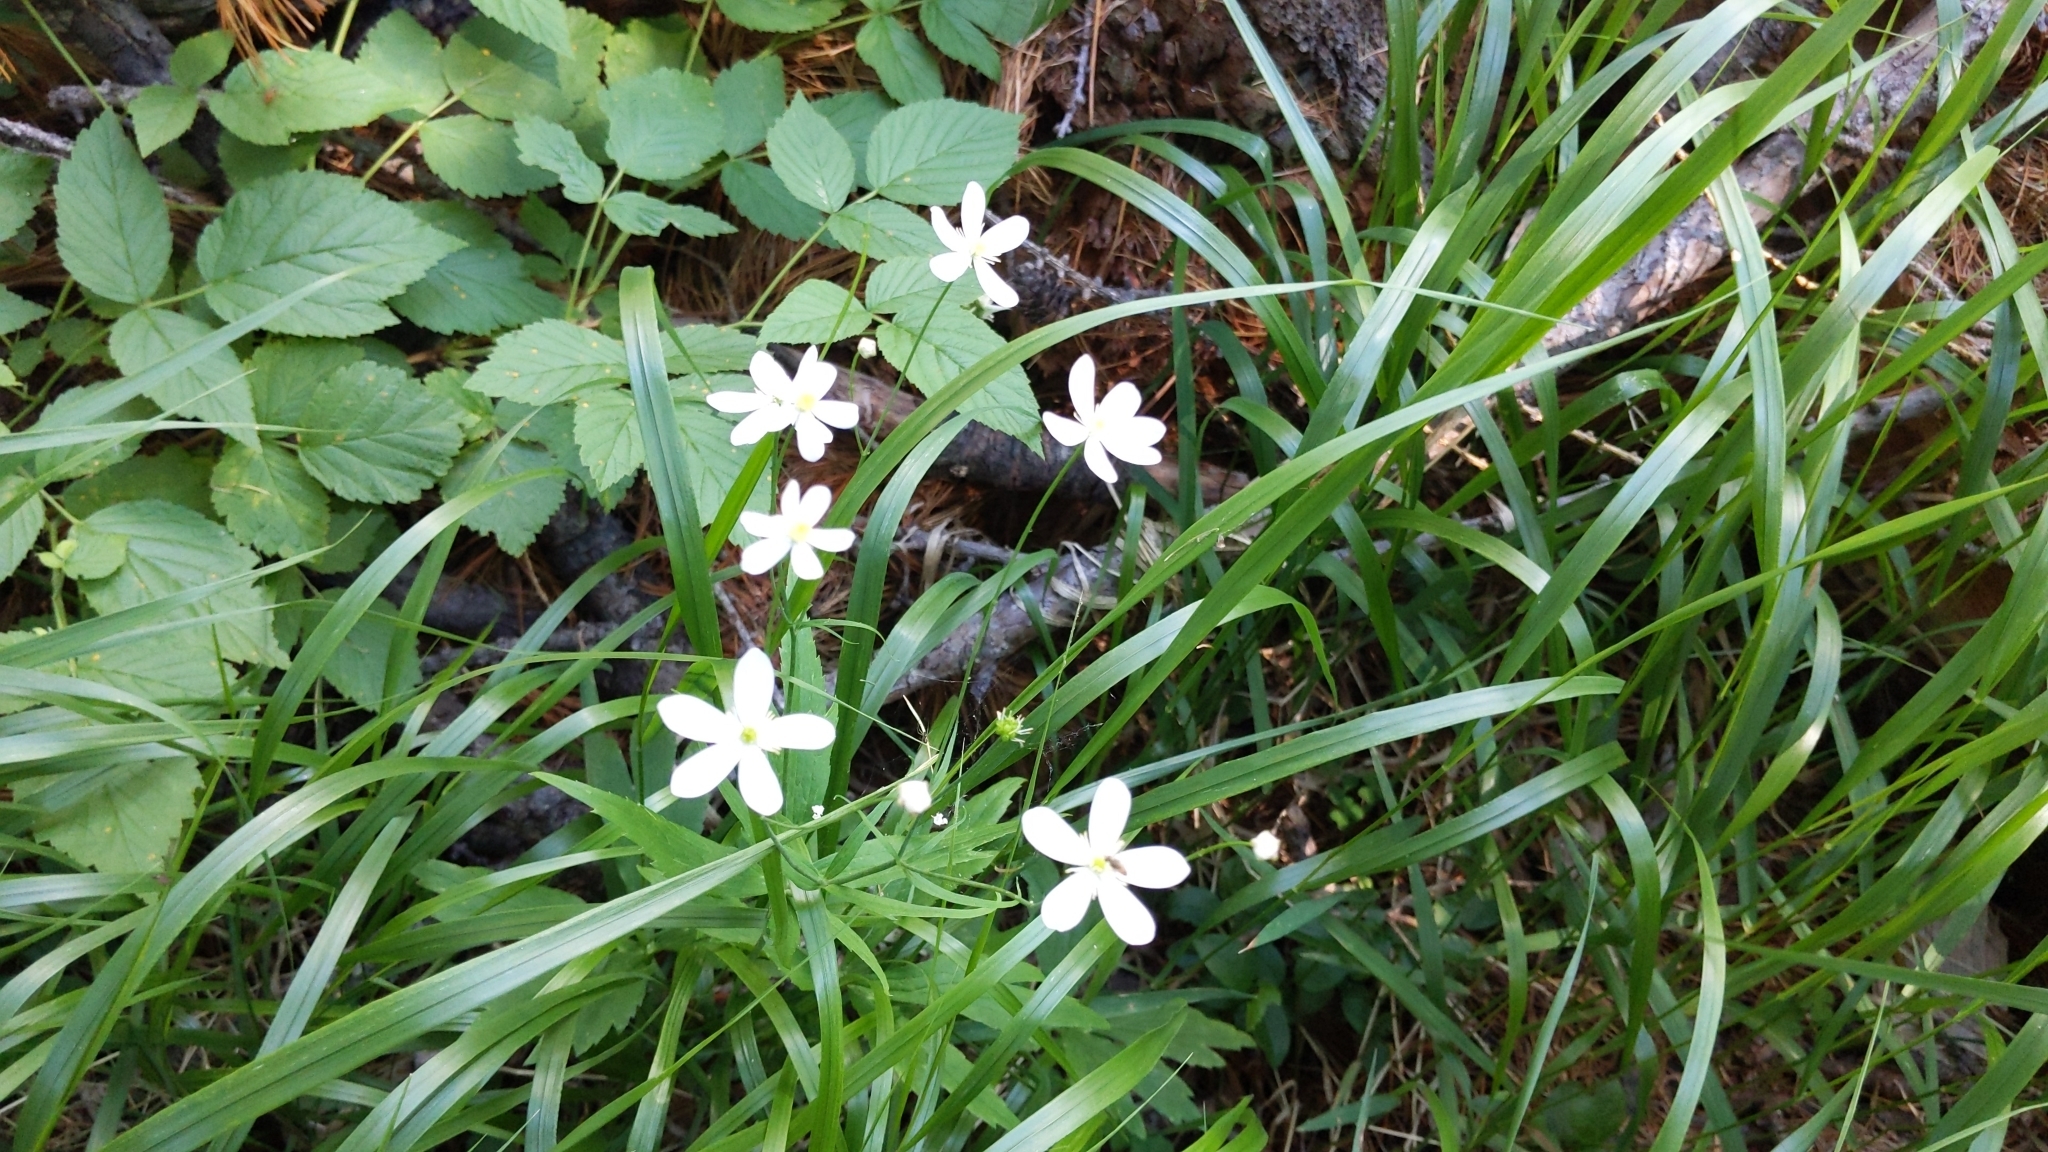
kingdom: Plantae
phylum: Tracheophyta
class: Magnoliopsida
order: Ranunculales
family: Ranunculaceae
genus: Ranunculus
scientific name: Ranunculus platanifolius
